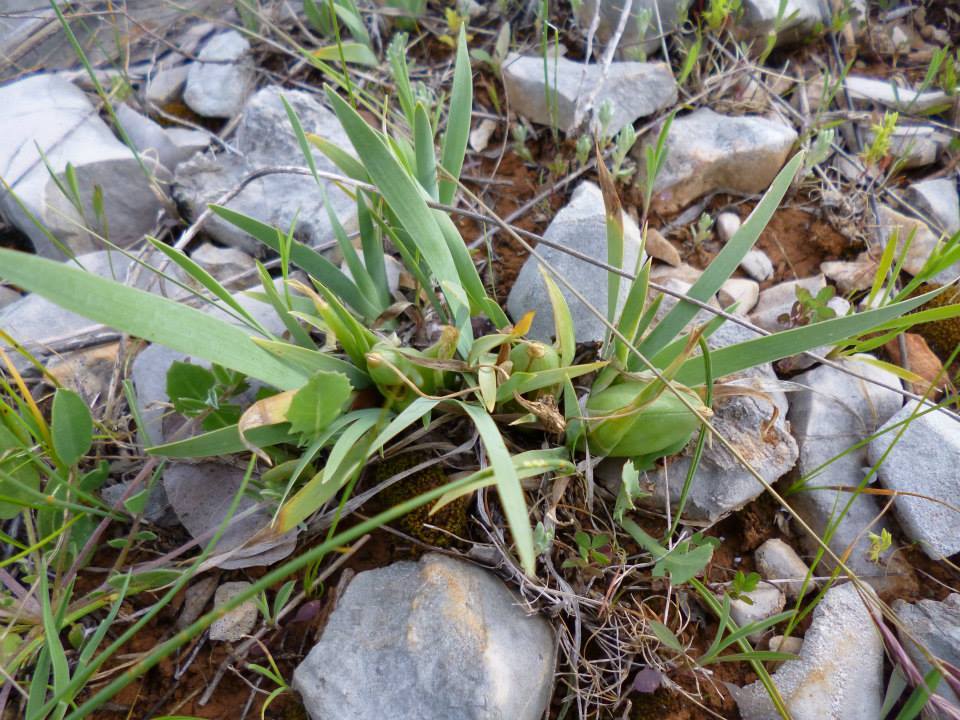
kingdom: Plantae
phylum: Tracheophyta
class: Liliopsida
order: Asparagales
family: Iridaceae
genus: Iris
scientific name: Iris adriatica
